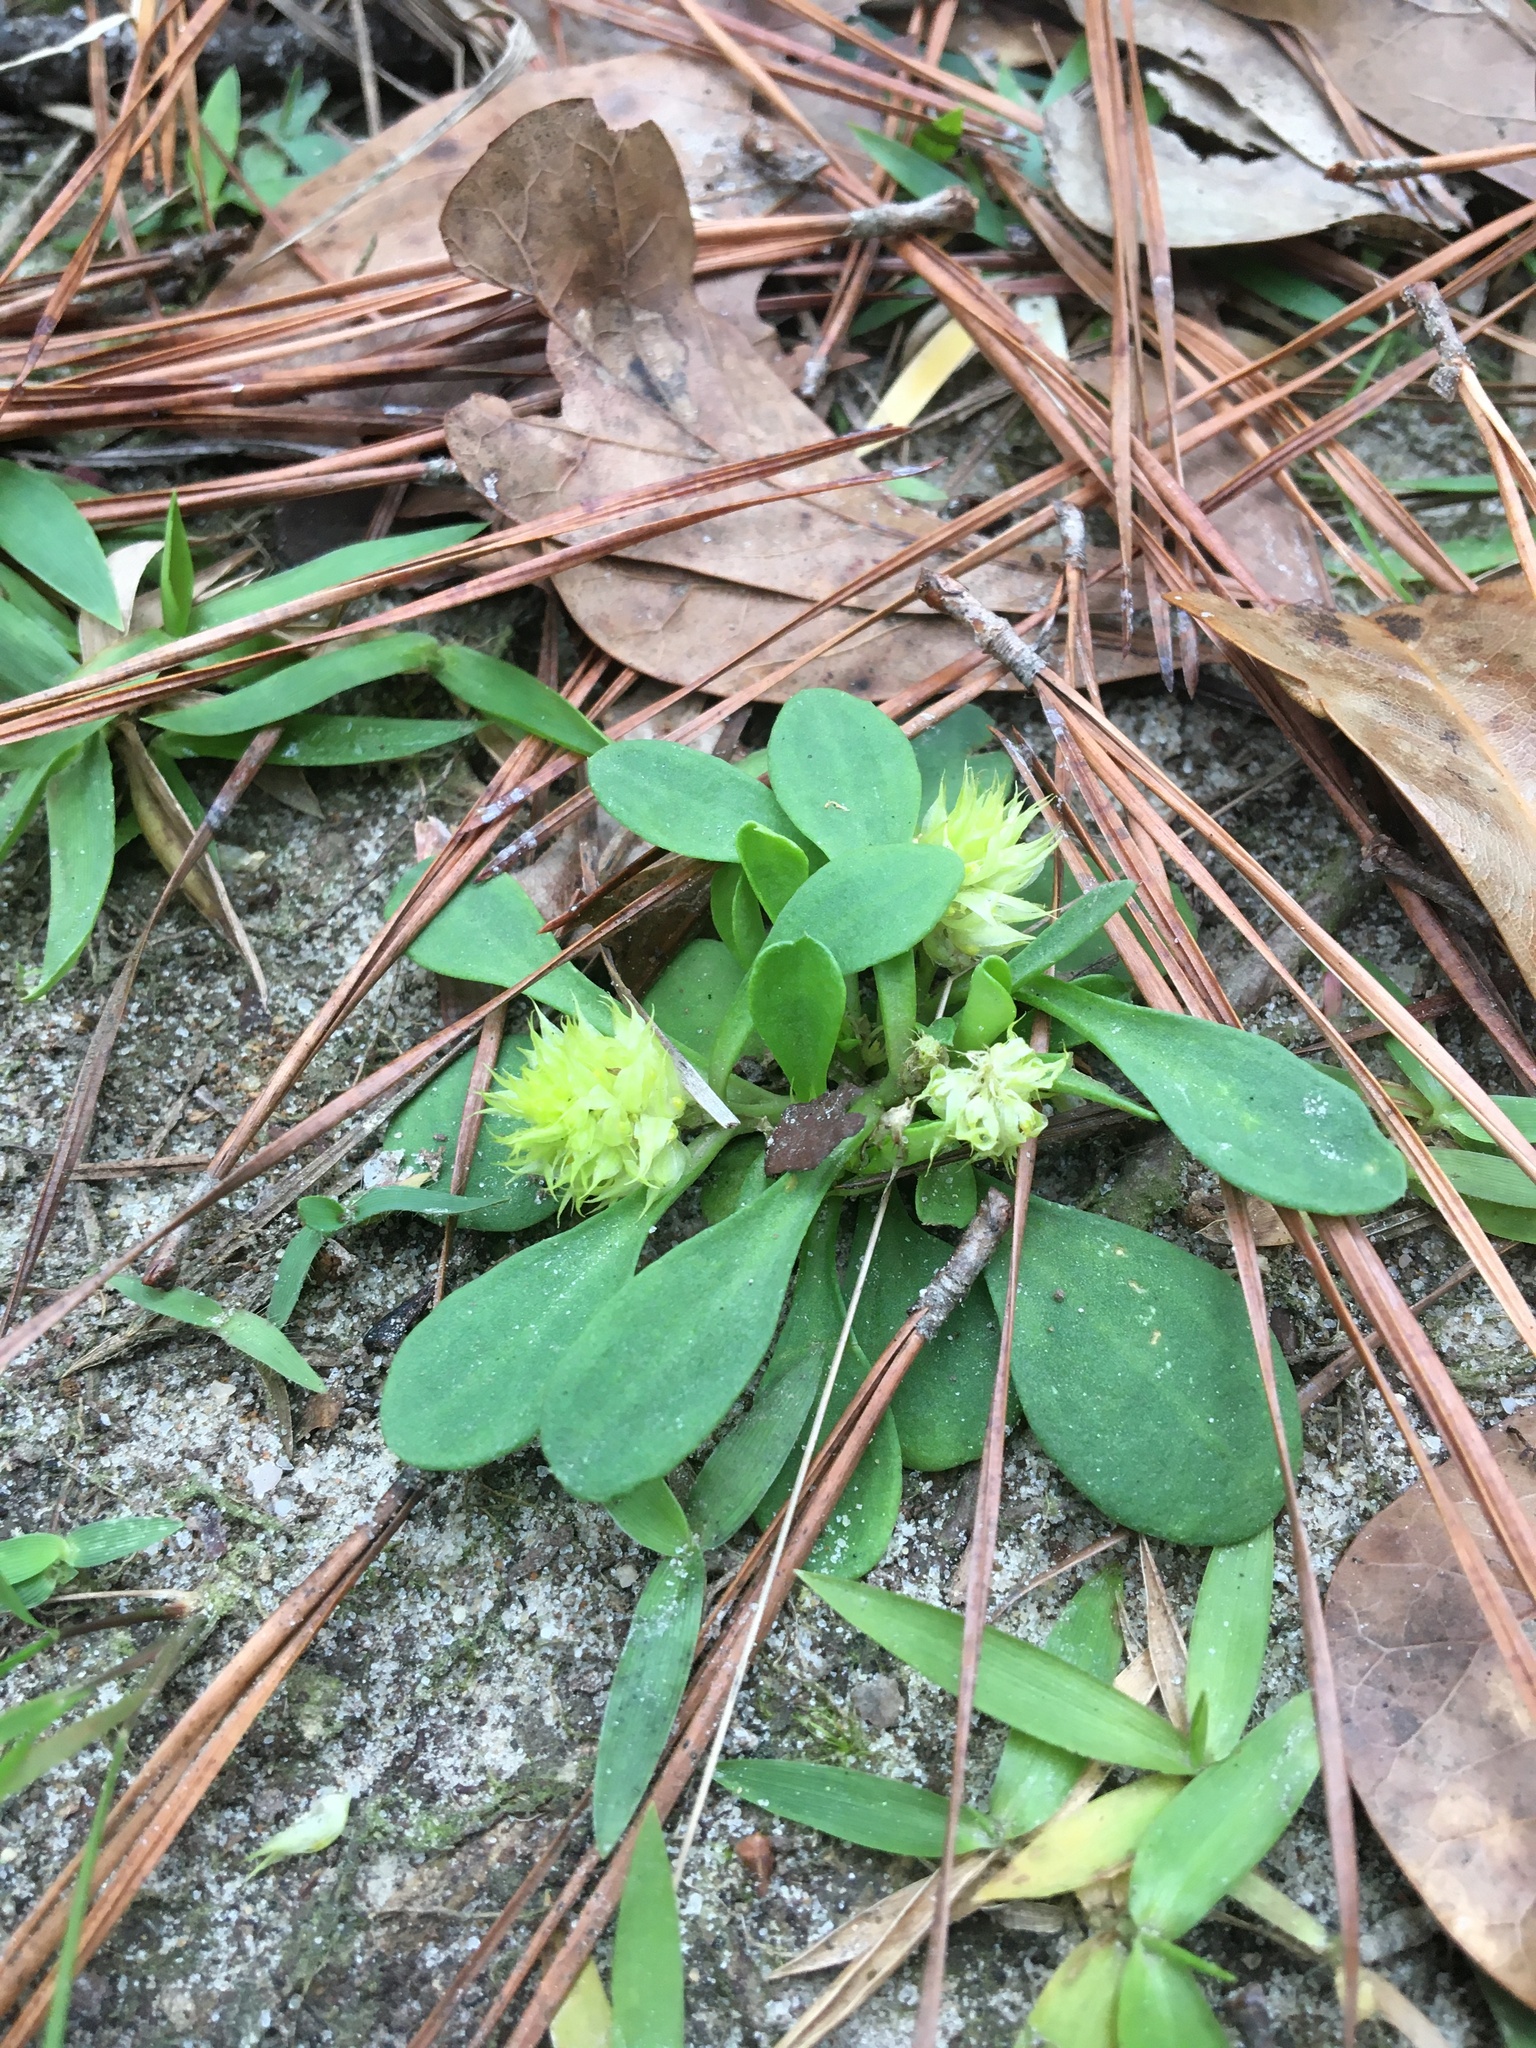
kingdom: Plantae
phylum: Tracheophyta
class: Magnoliopsida
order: Fabales
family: Polygalaceae
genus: Polygala
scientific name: Polygala nana
